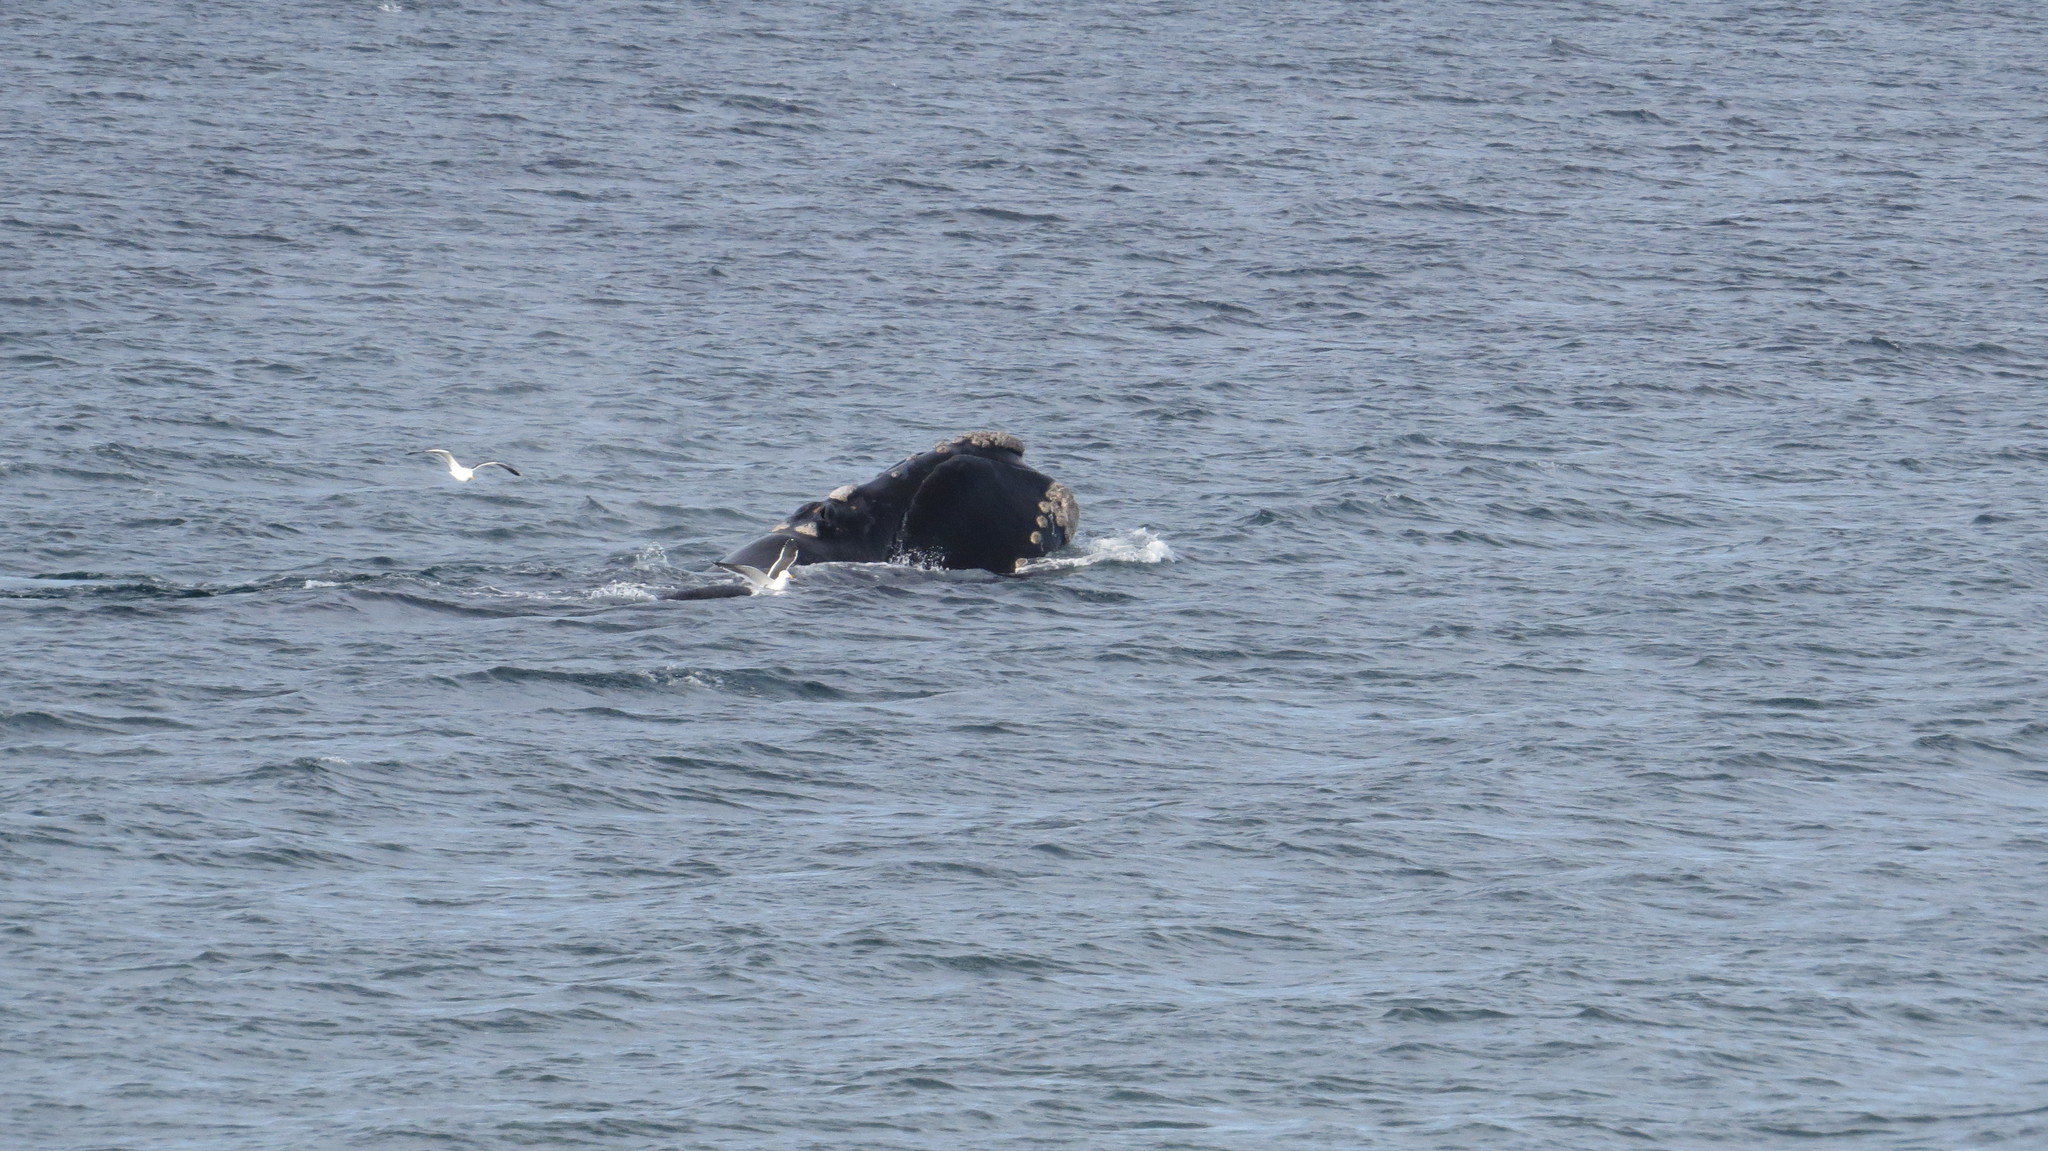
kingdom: Animalia
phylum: Chordata
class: Mammalia
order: Cetacea
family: Balaenidae
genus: Eubalaena
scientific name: Eubalaena australis
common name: Southern right whale
